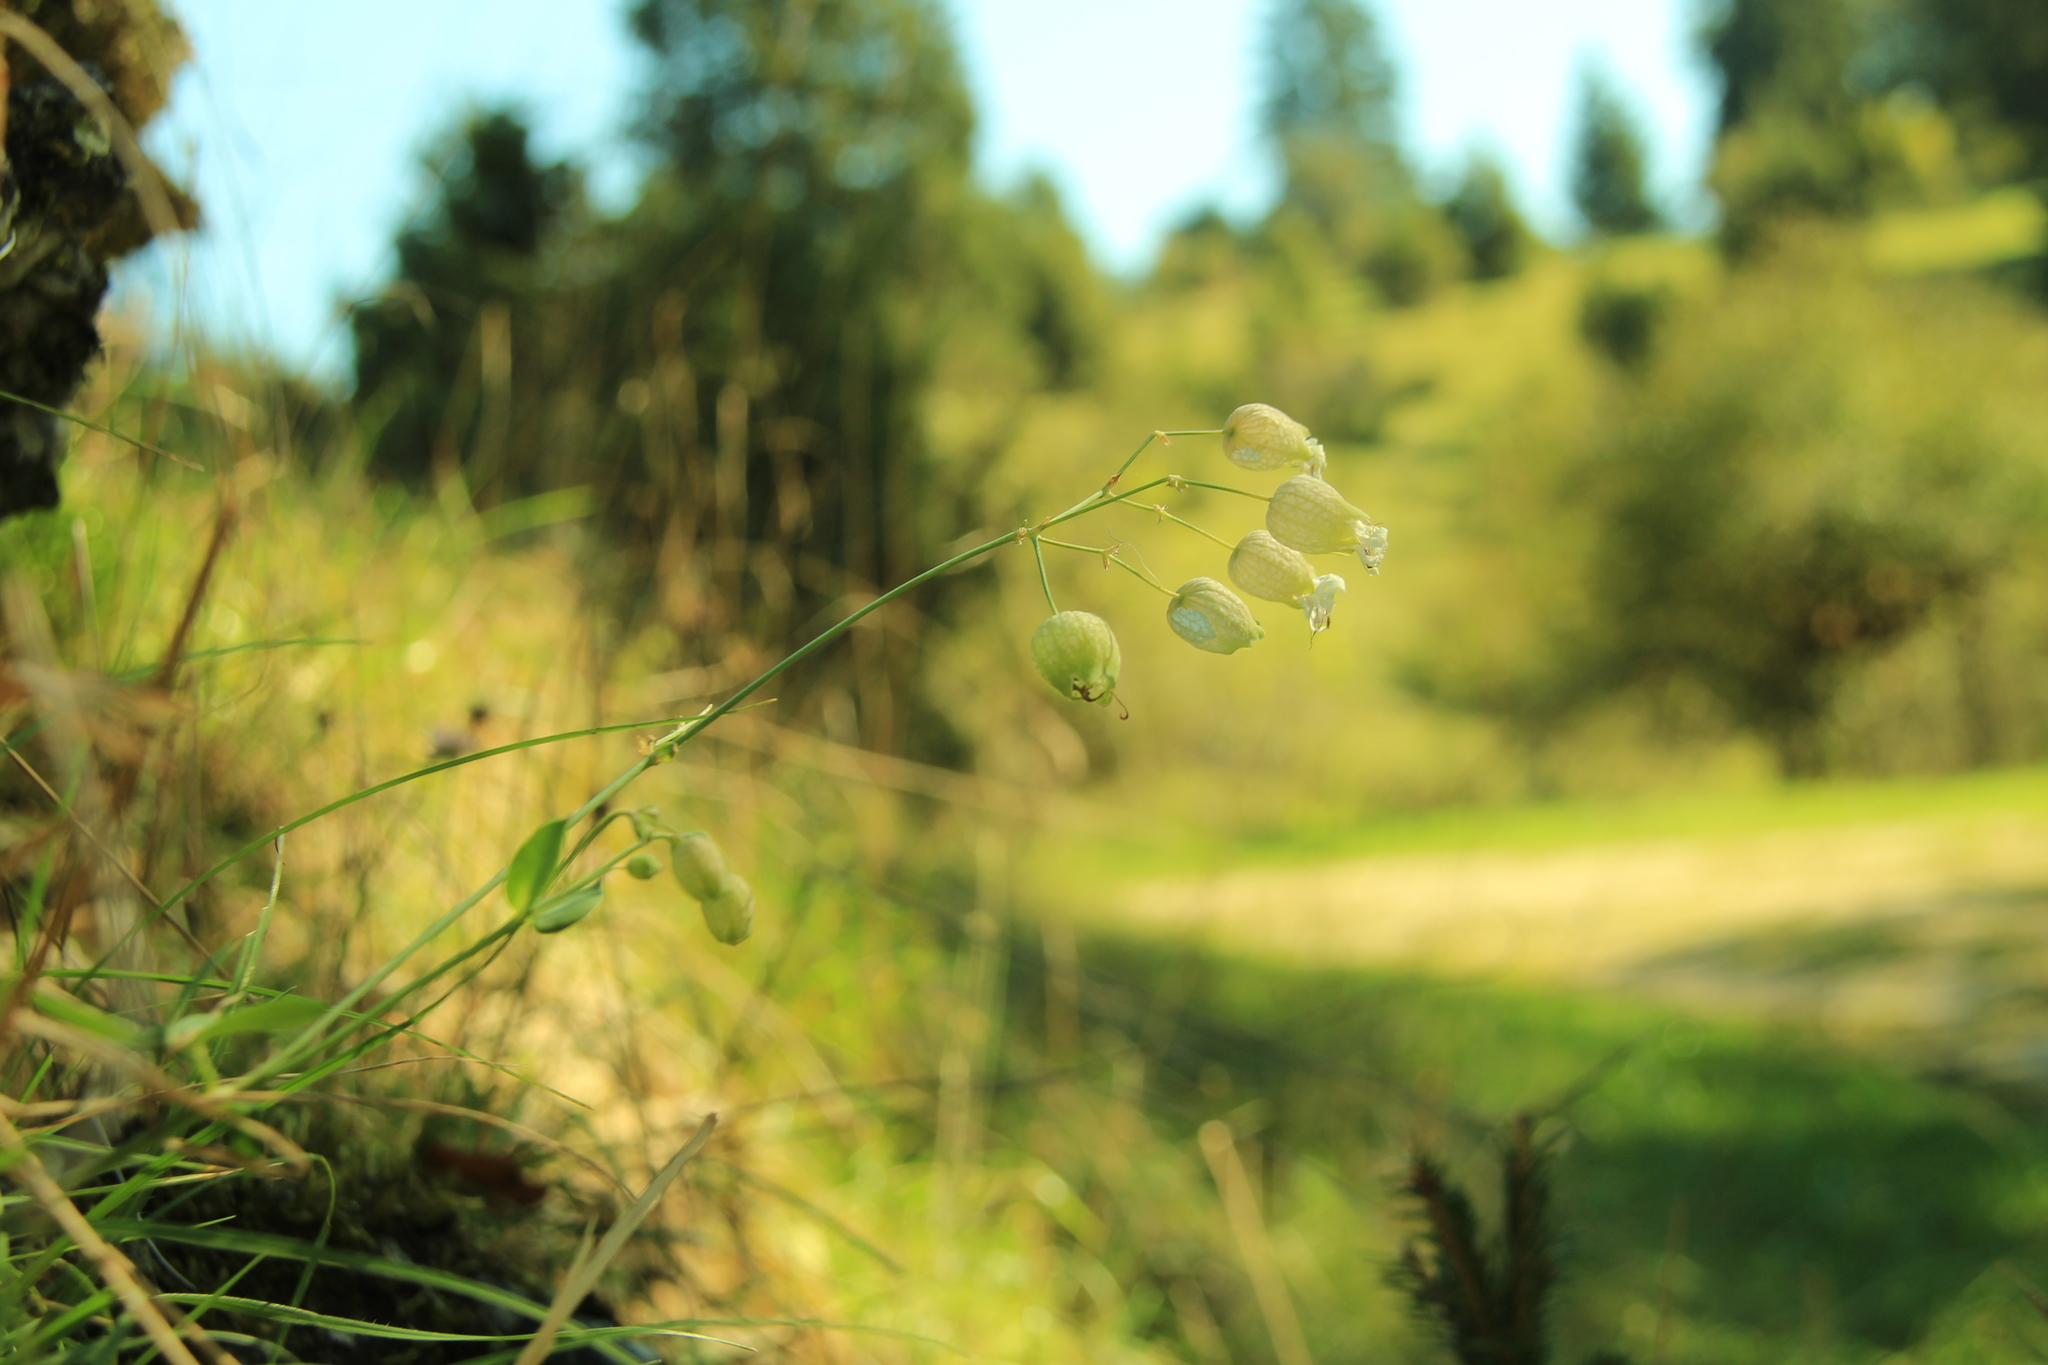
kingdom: Plantae
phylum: Tracheophyta
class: Magnoliopsida
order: Caryophyllales
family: Caryophyllaceae
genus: Silene
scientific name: Silene vulgaris
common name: Bladder campion
